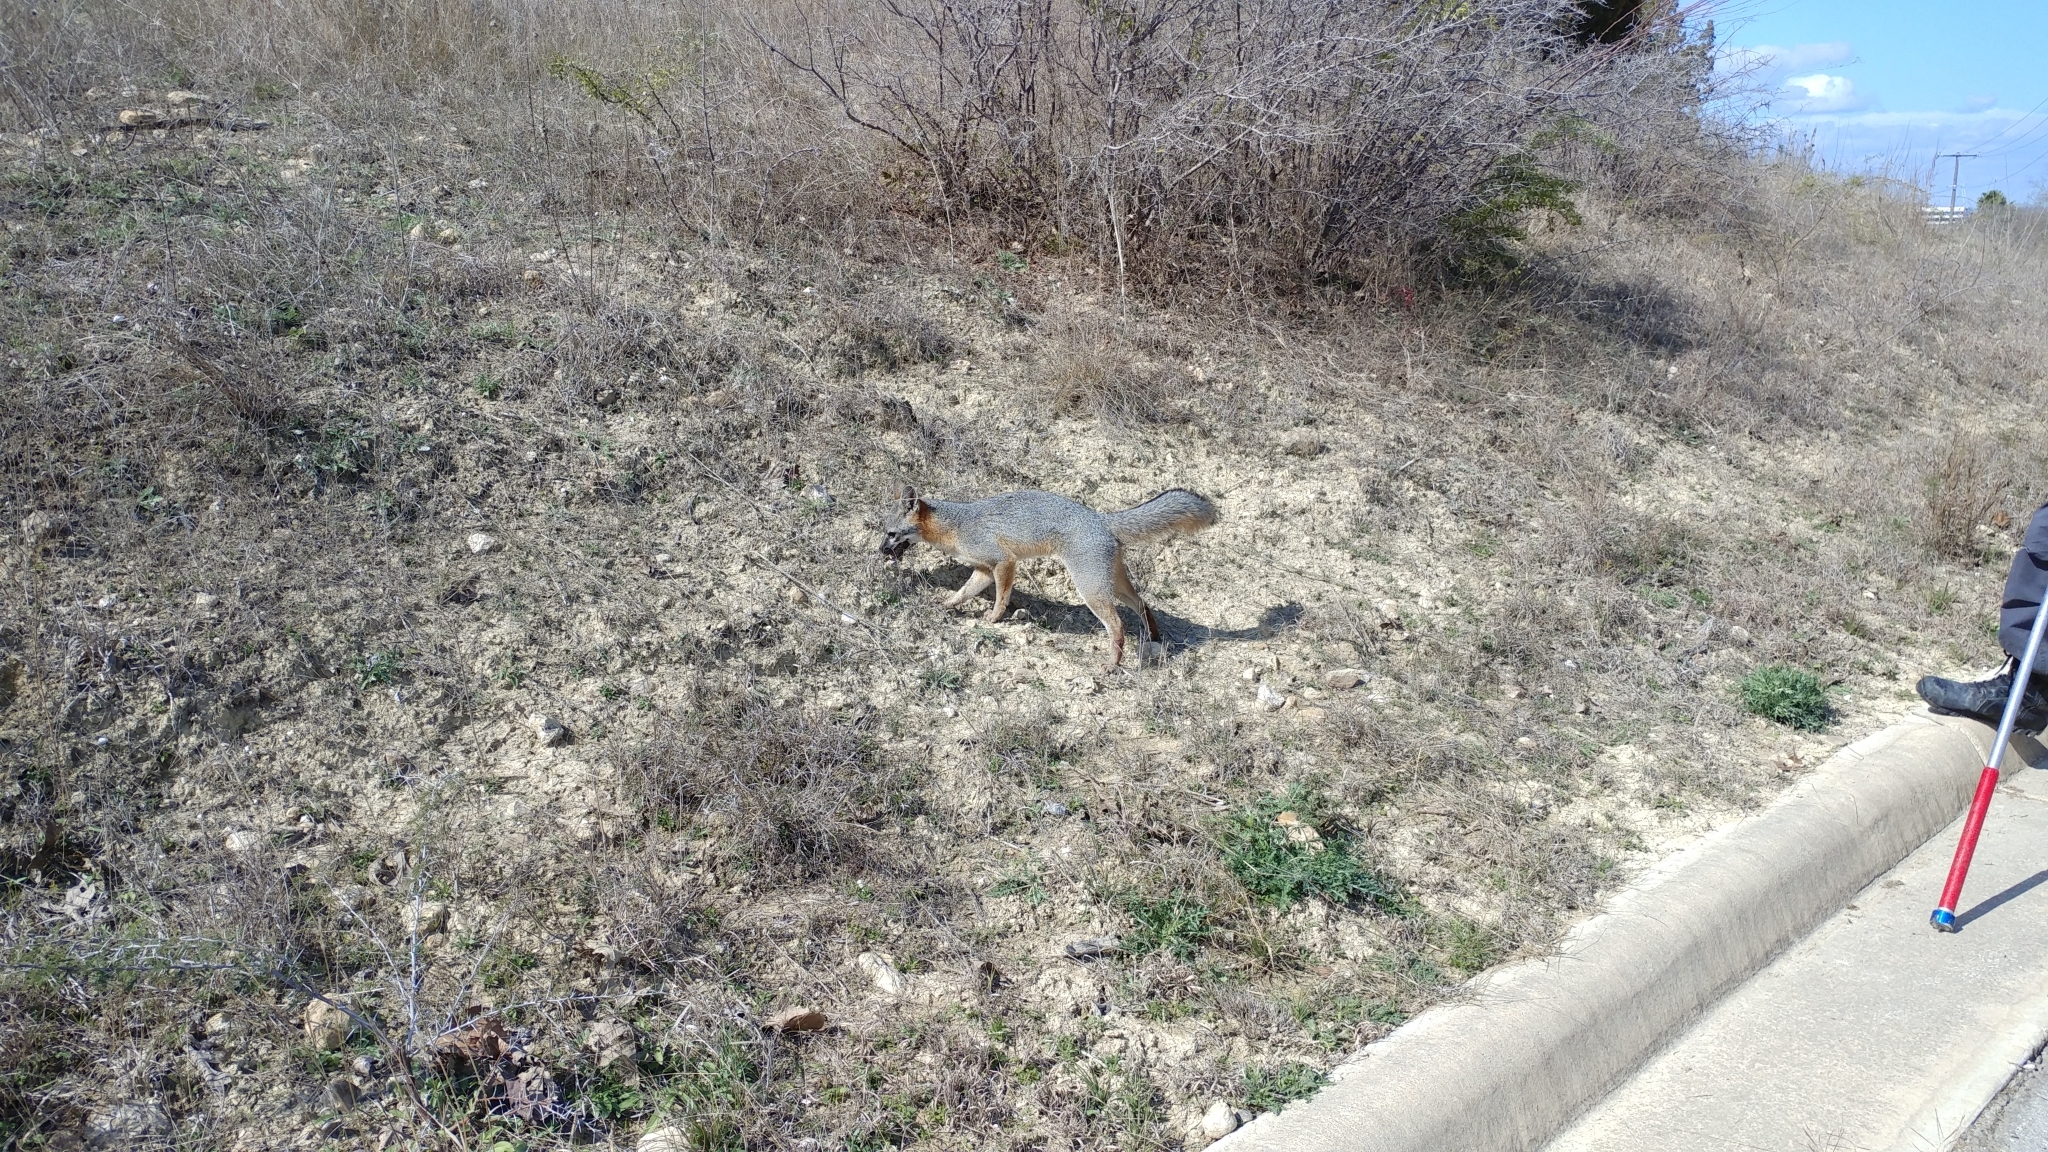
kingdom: Animalia
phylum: Chordata
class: Mammalia
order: Carnivora
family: Canidae
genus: Urocyon
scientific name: Urocyon cinereoargenteus
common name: Gray fox
